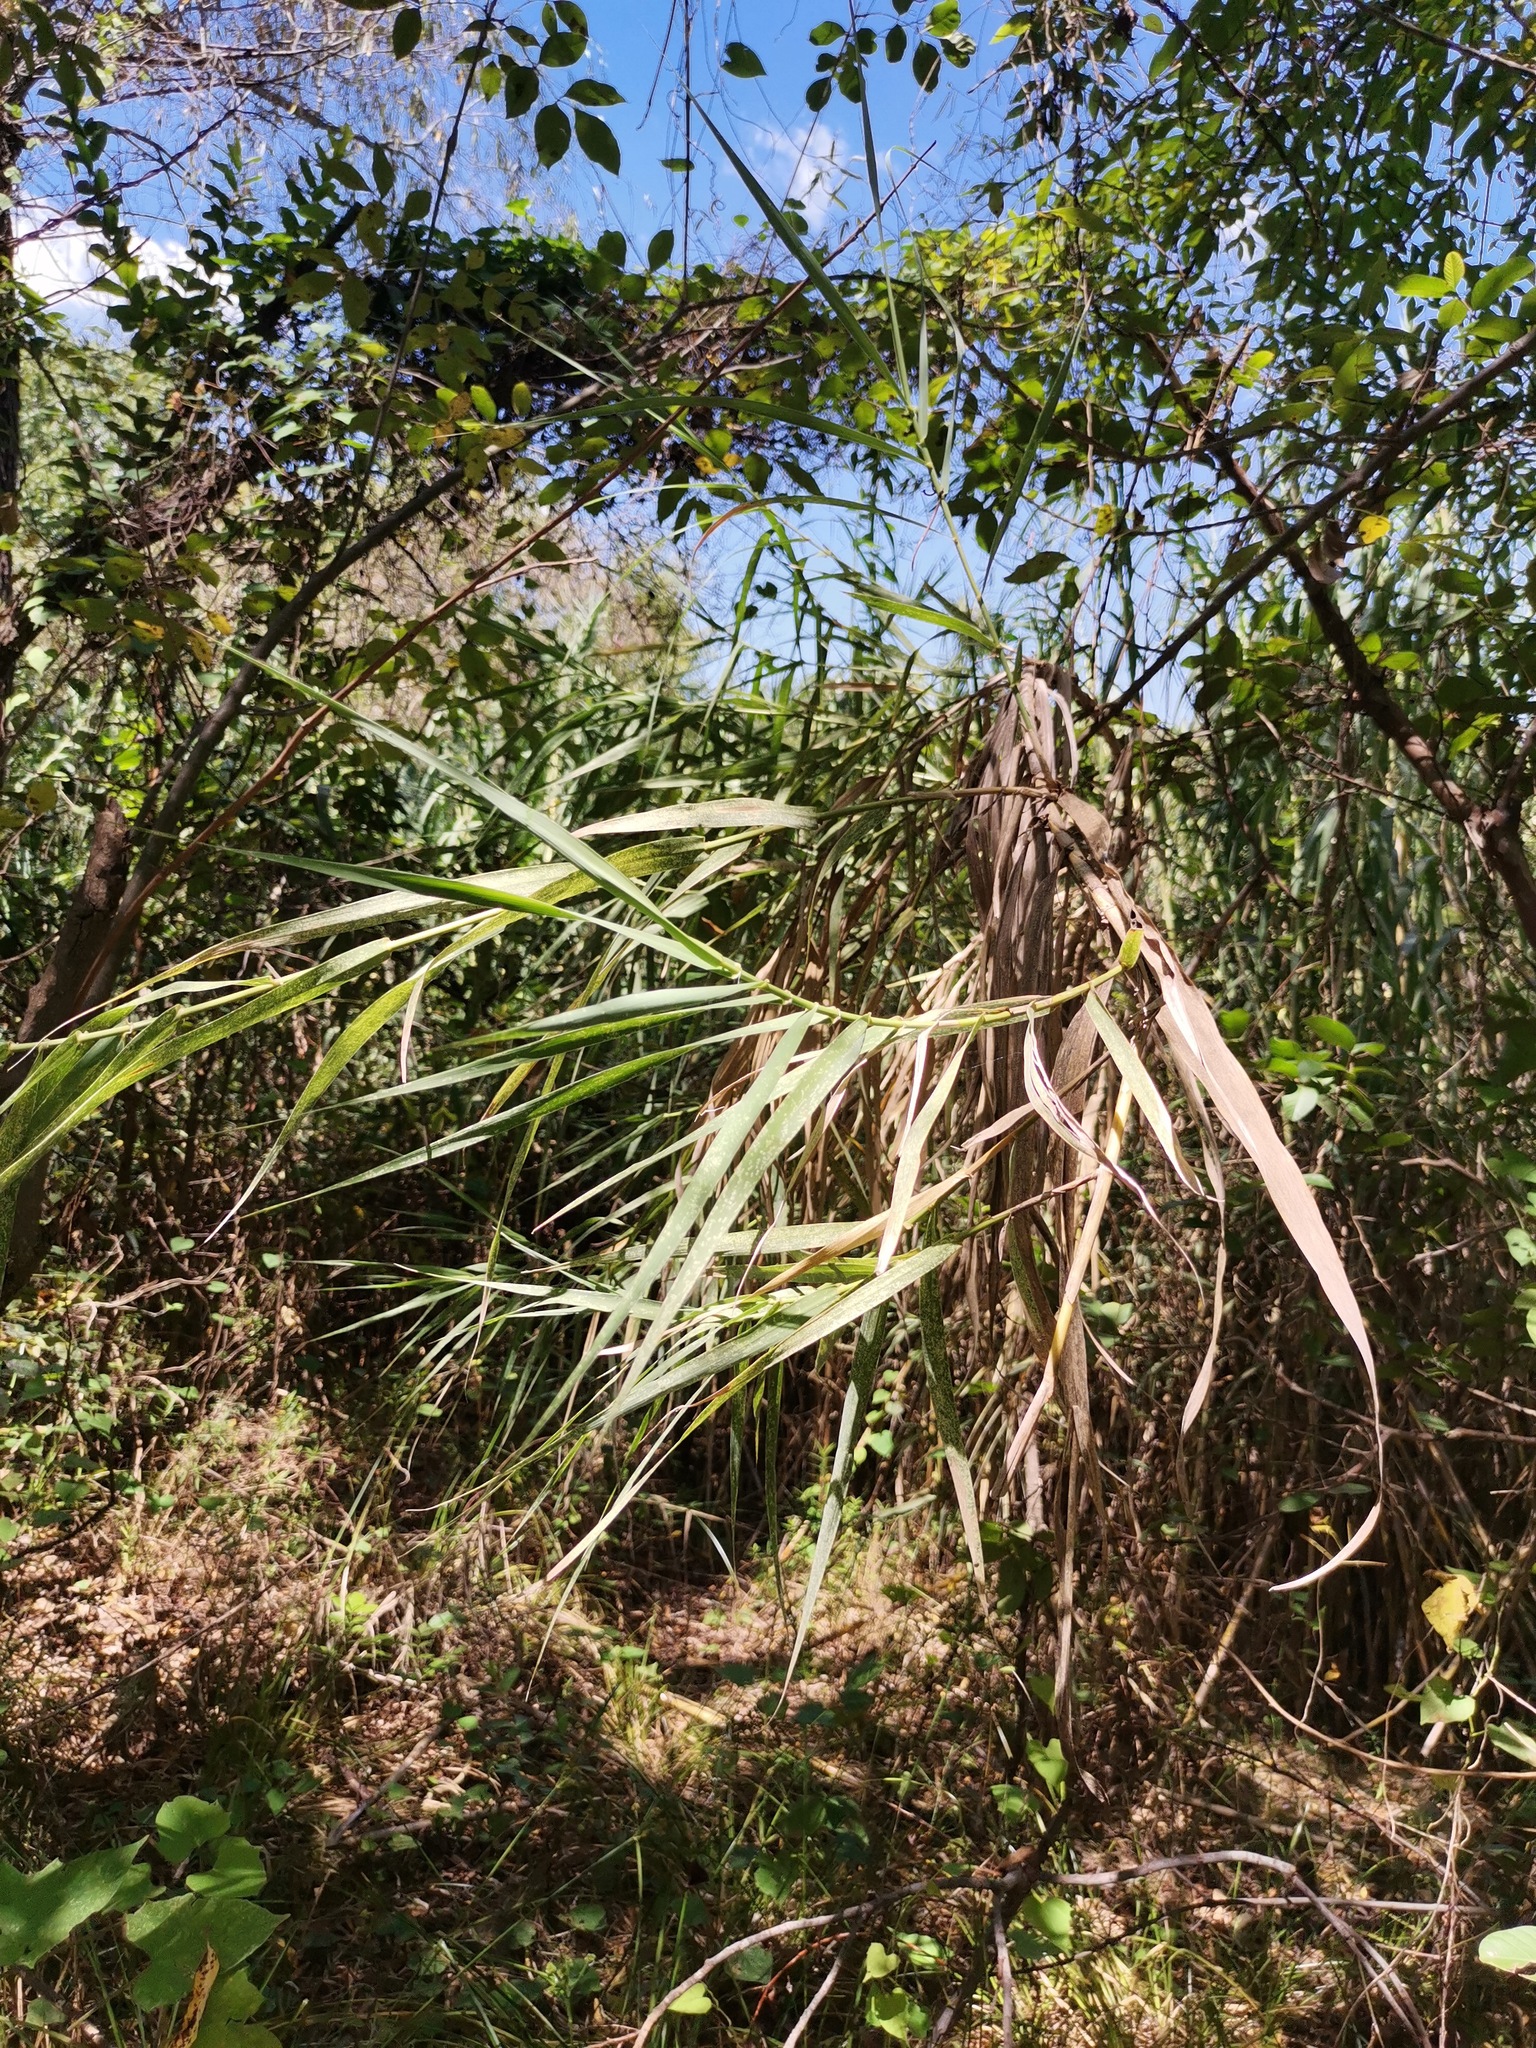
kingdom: Plantae
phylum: Tracheophyta
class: Liliopsida
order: Poales
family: Poaceae
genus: Arundo
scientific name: Arundo donax
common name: Giant reed
